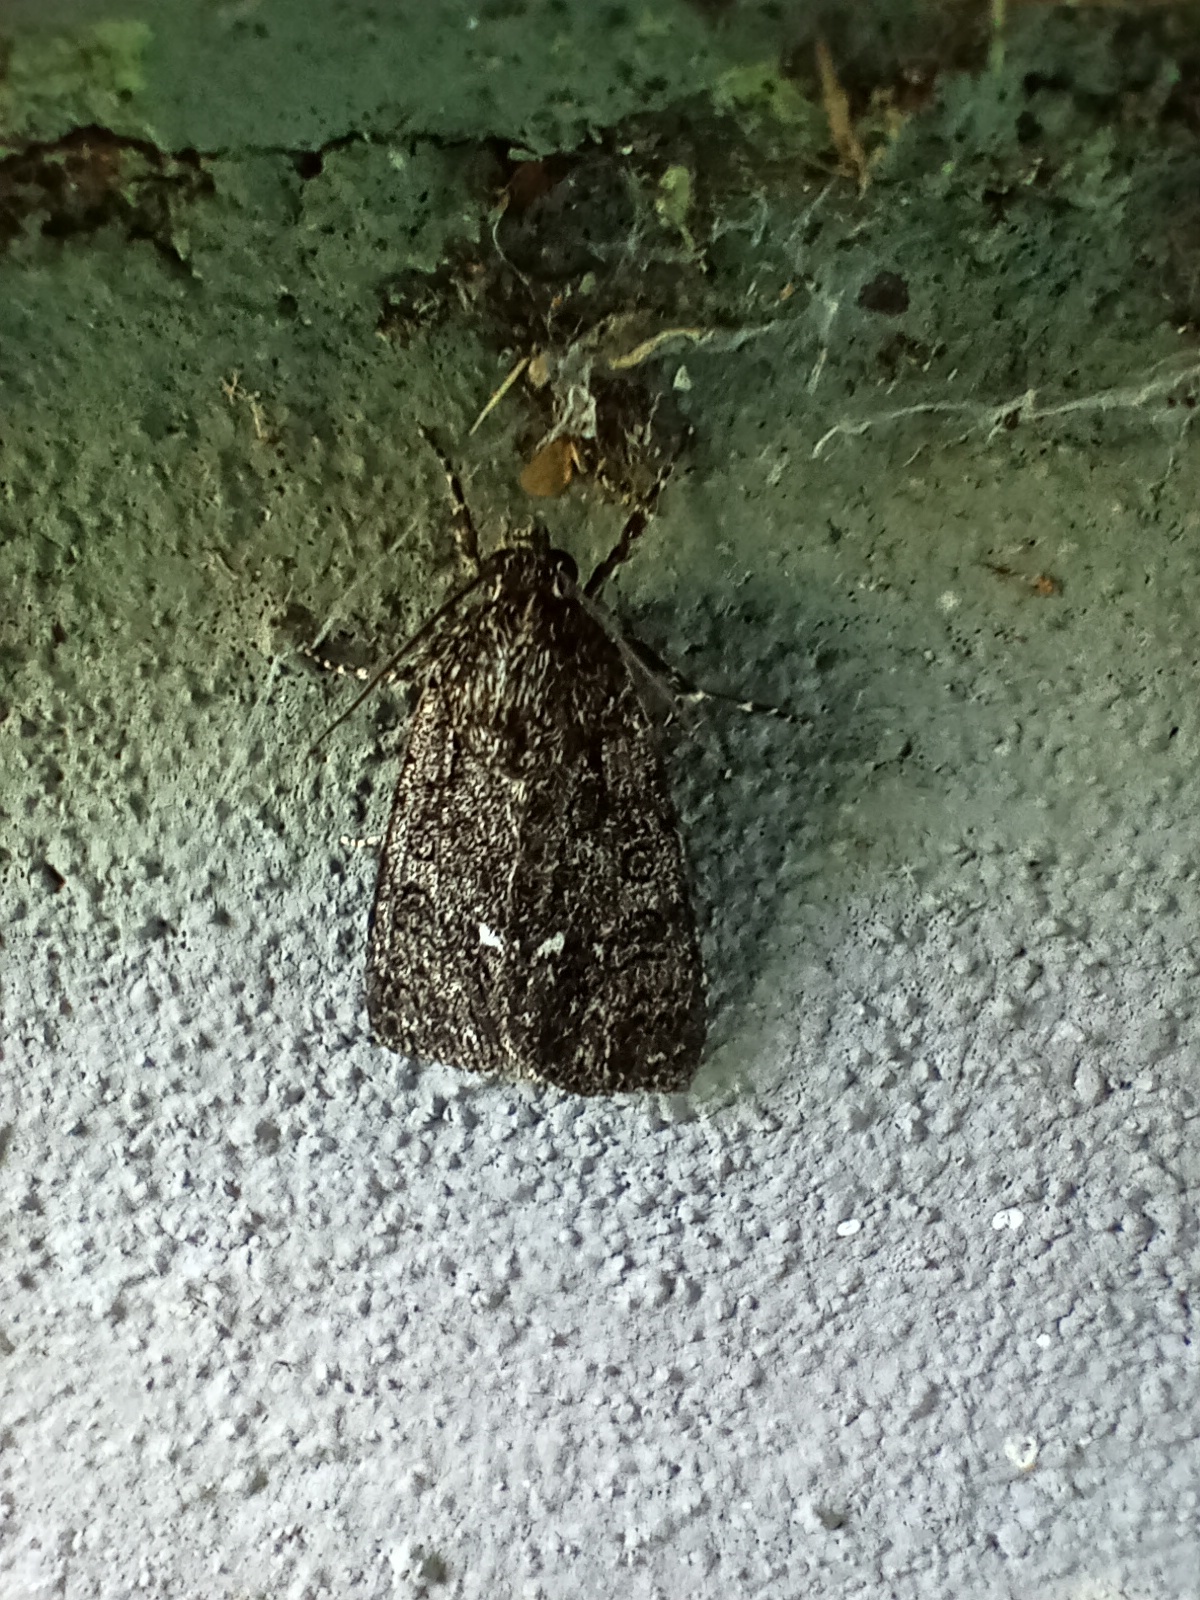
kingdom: Animalia
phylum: Arthropoda
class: Insecta
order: Lepidoptera
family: Noctuidae
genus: Acronicta
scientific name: Acronicta rumicis
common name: Knot grass
